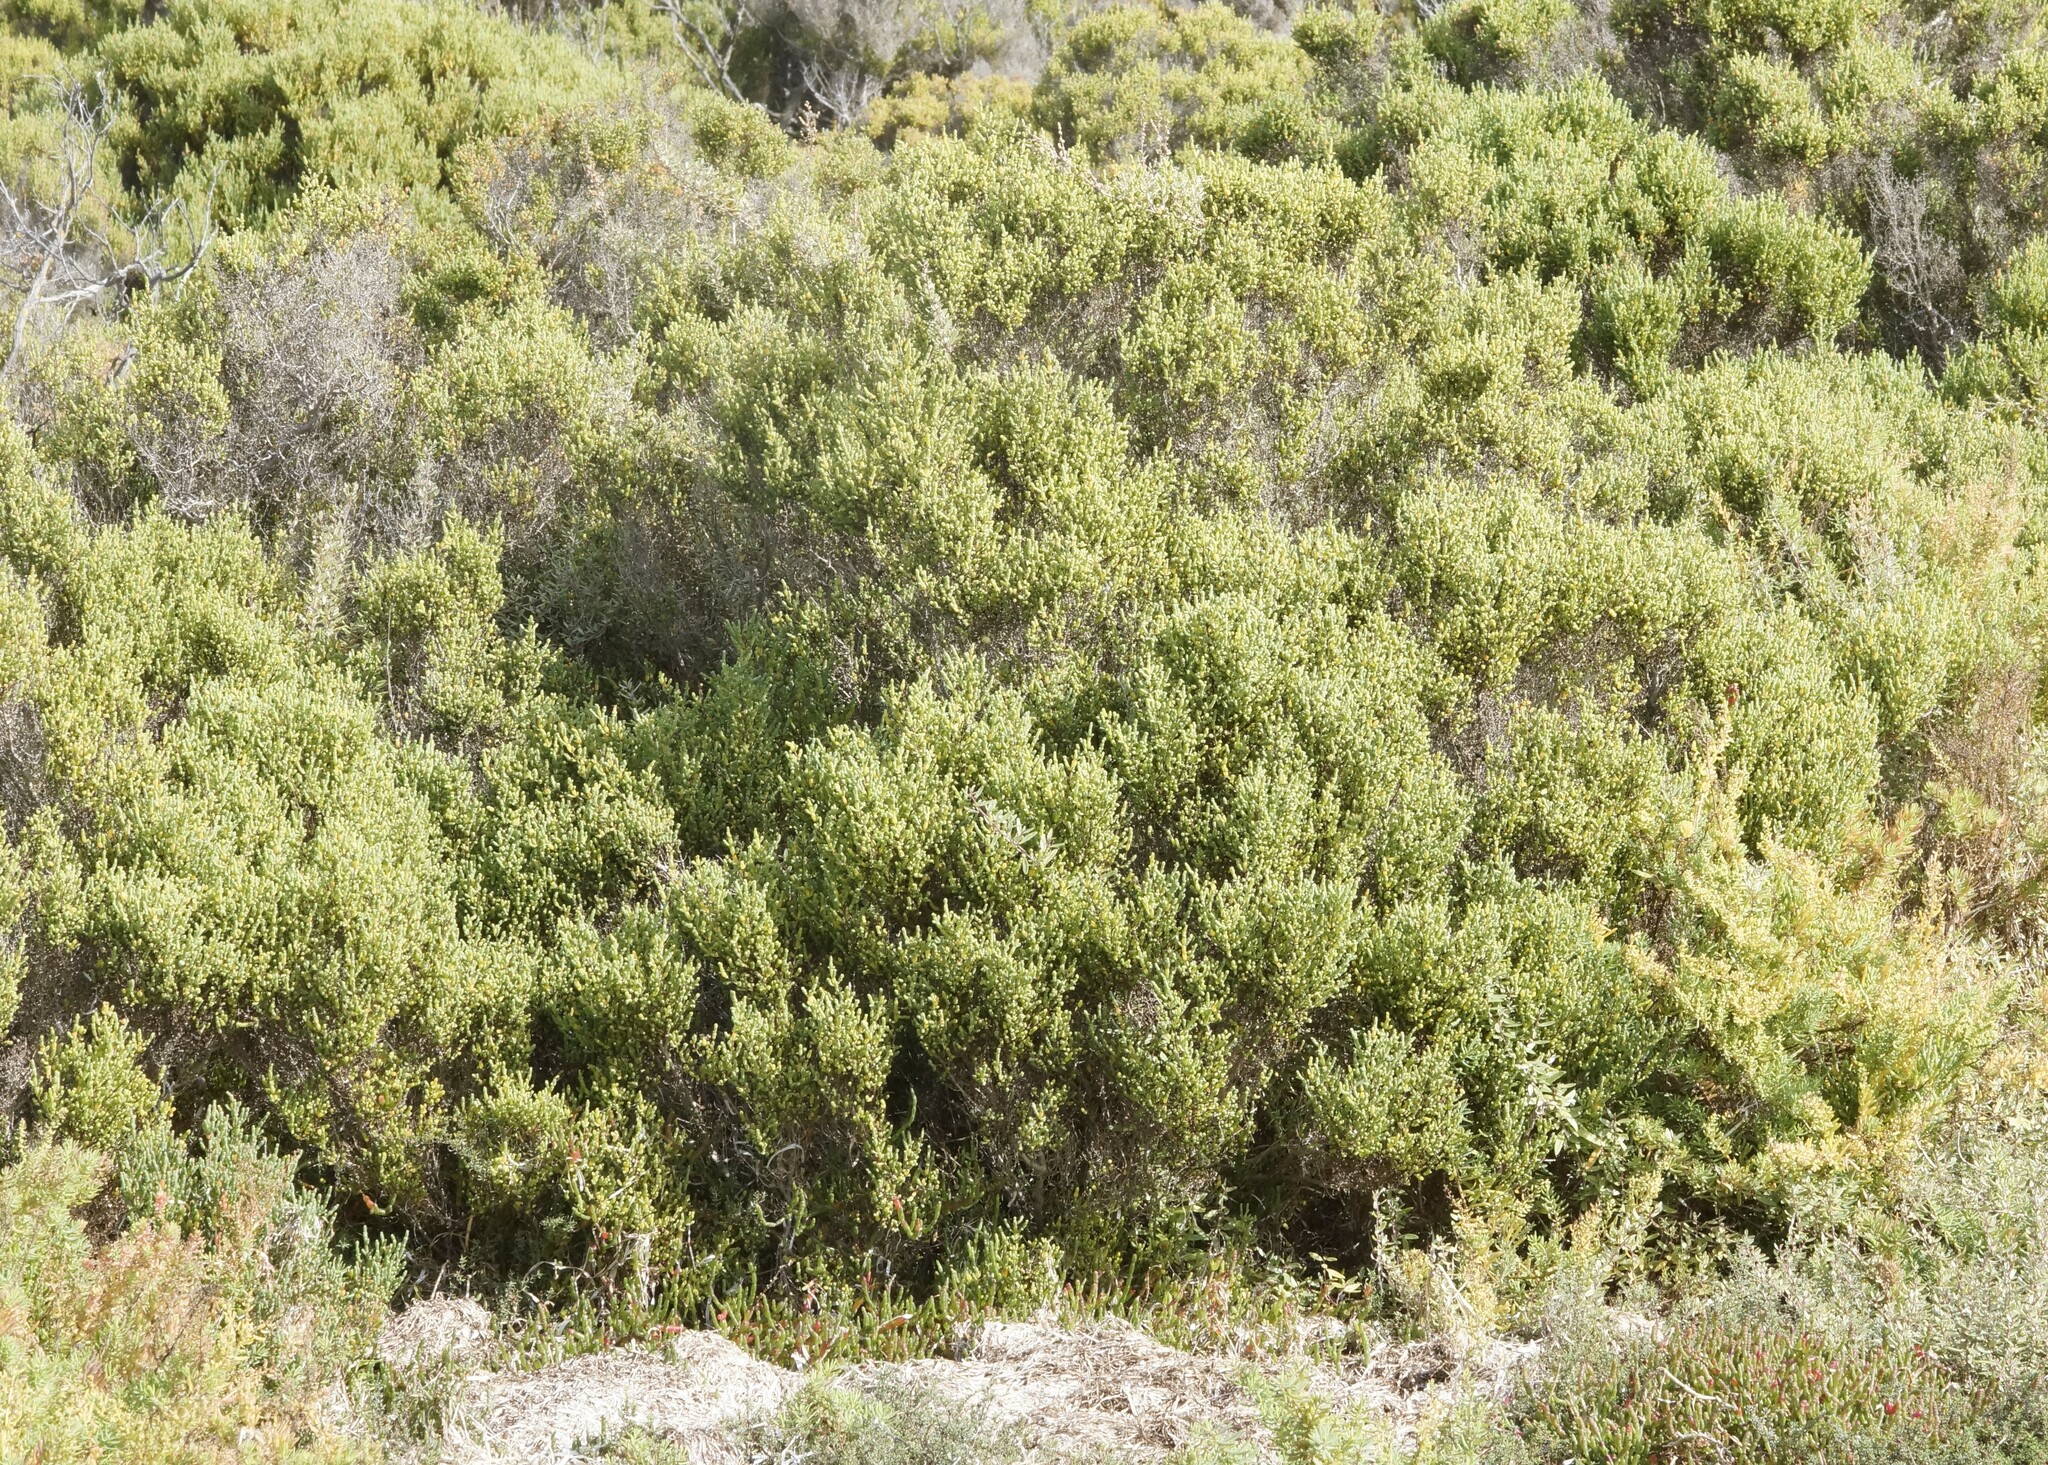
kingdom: Plantae
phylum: Tracheophyta
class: Magnoliopsida
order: Caryophyllales
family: Amaranthaceae
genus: Tecticornia
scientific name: Tecticornia arbuscula
